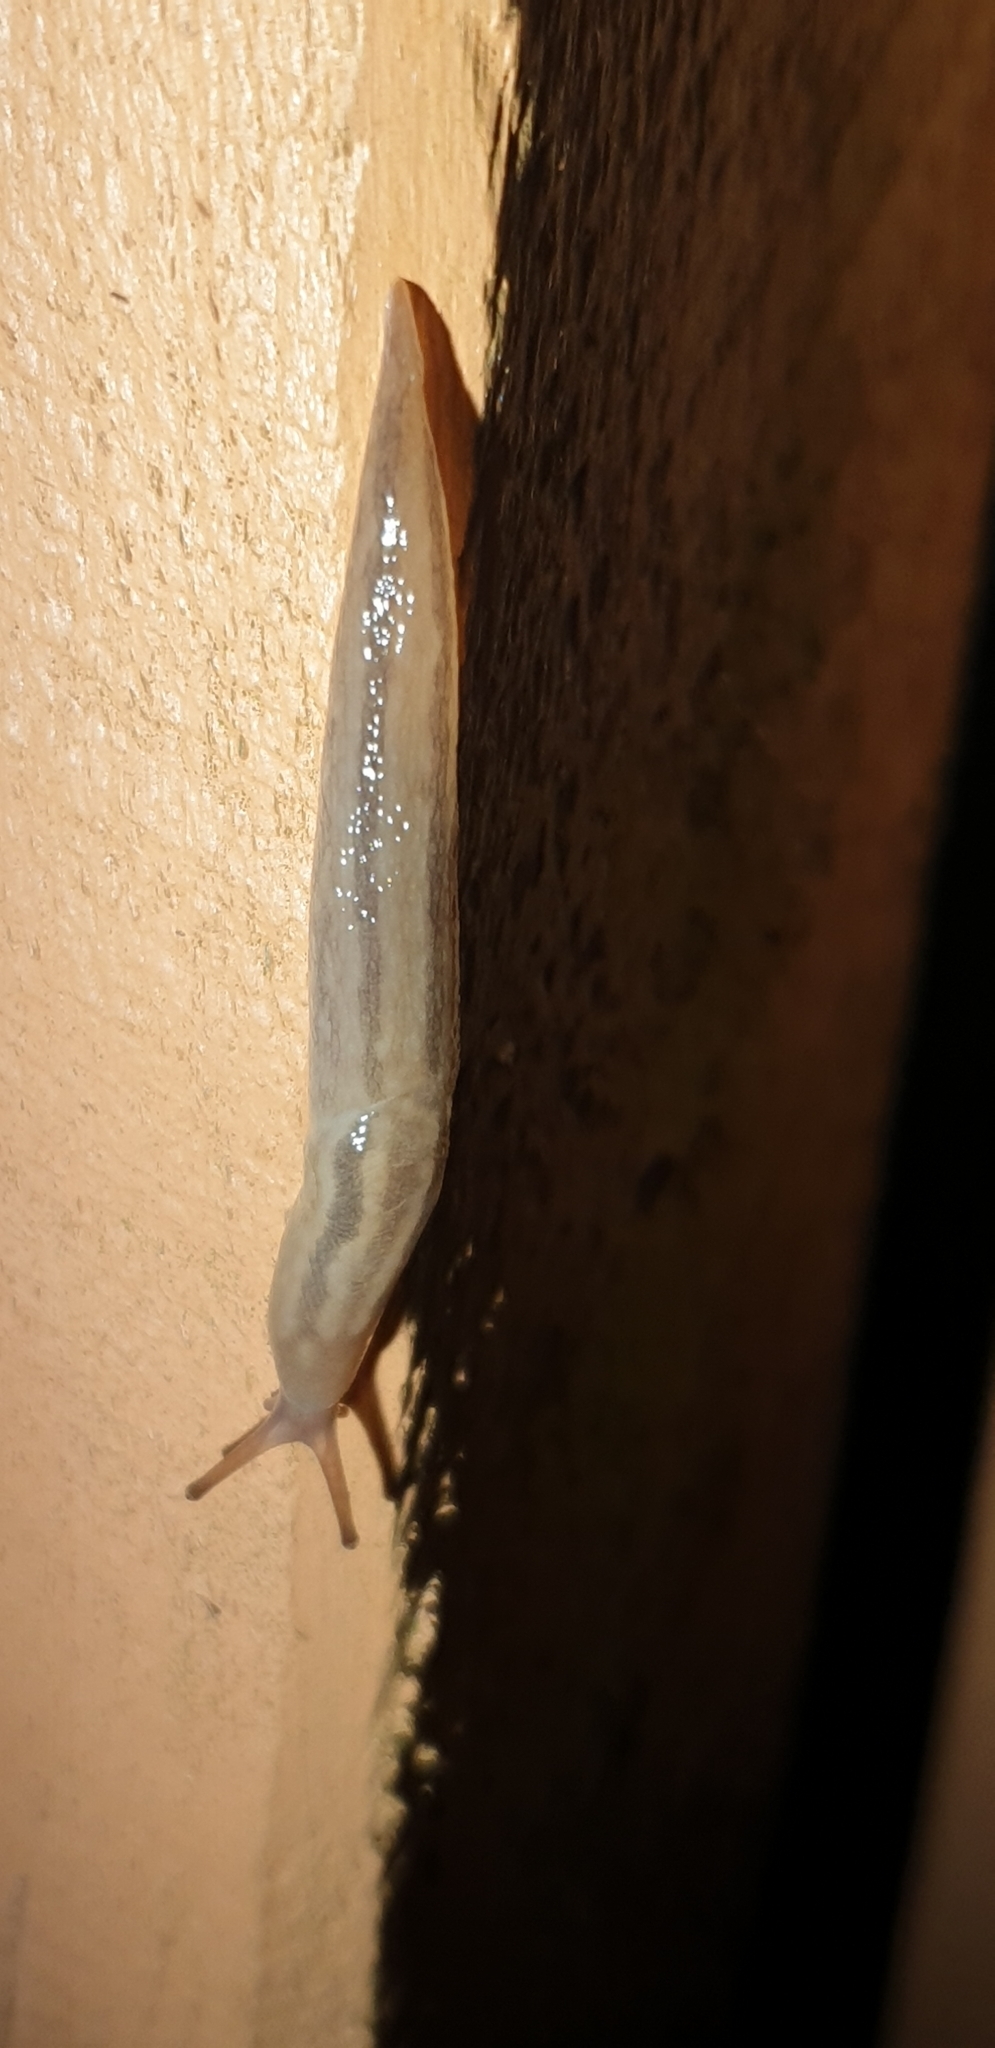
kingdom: Animalia
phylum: Mollusca
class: Gastropoda
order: Stylommatophora
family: Limacidae
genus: Ambigolimax
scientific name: Ambigolimax
